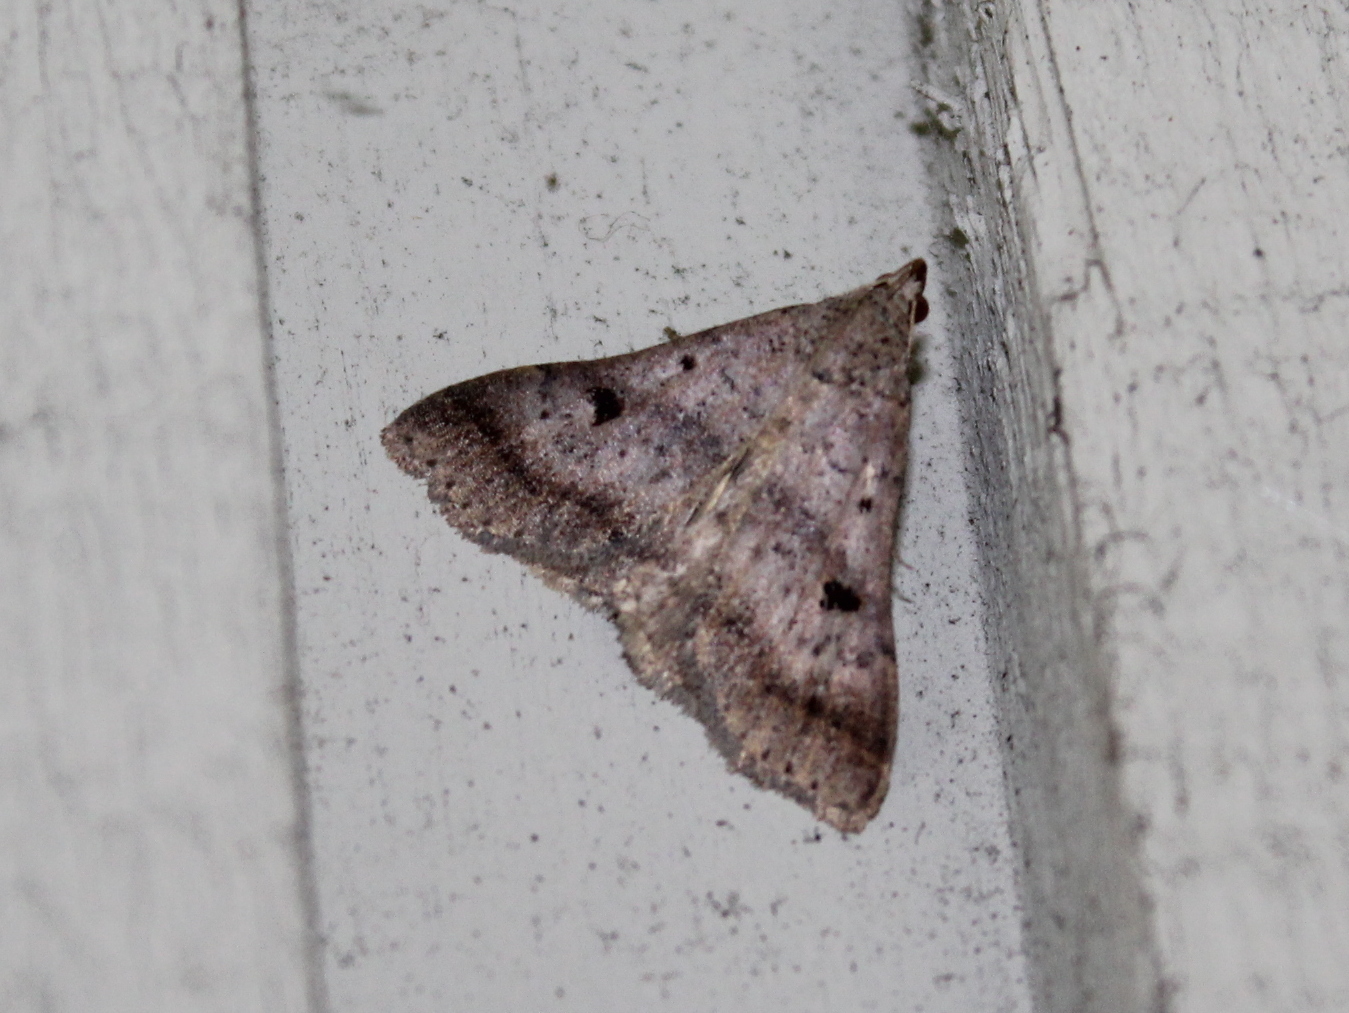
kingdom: Animalia
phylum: Arthropoda
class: Insecta
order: Lepidoptera
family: Erebidae
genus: Bleptina
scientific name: Bleptina caradrinalis
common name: Bent-winged owlet
